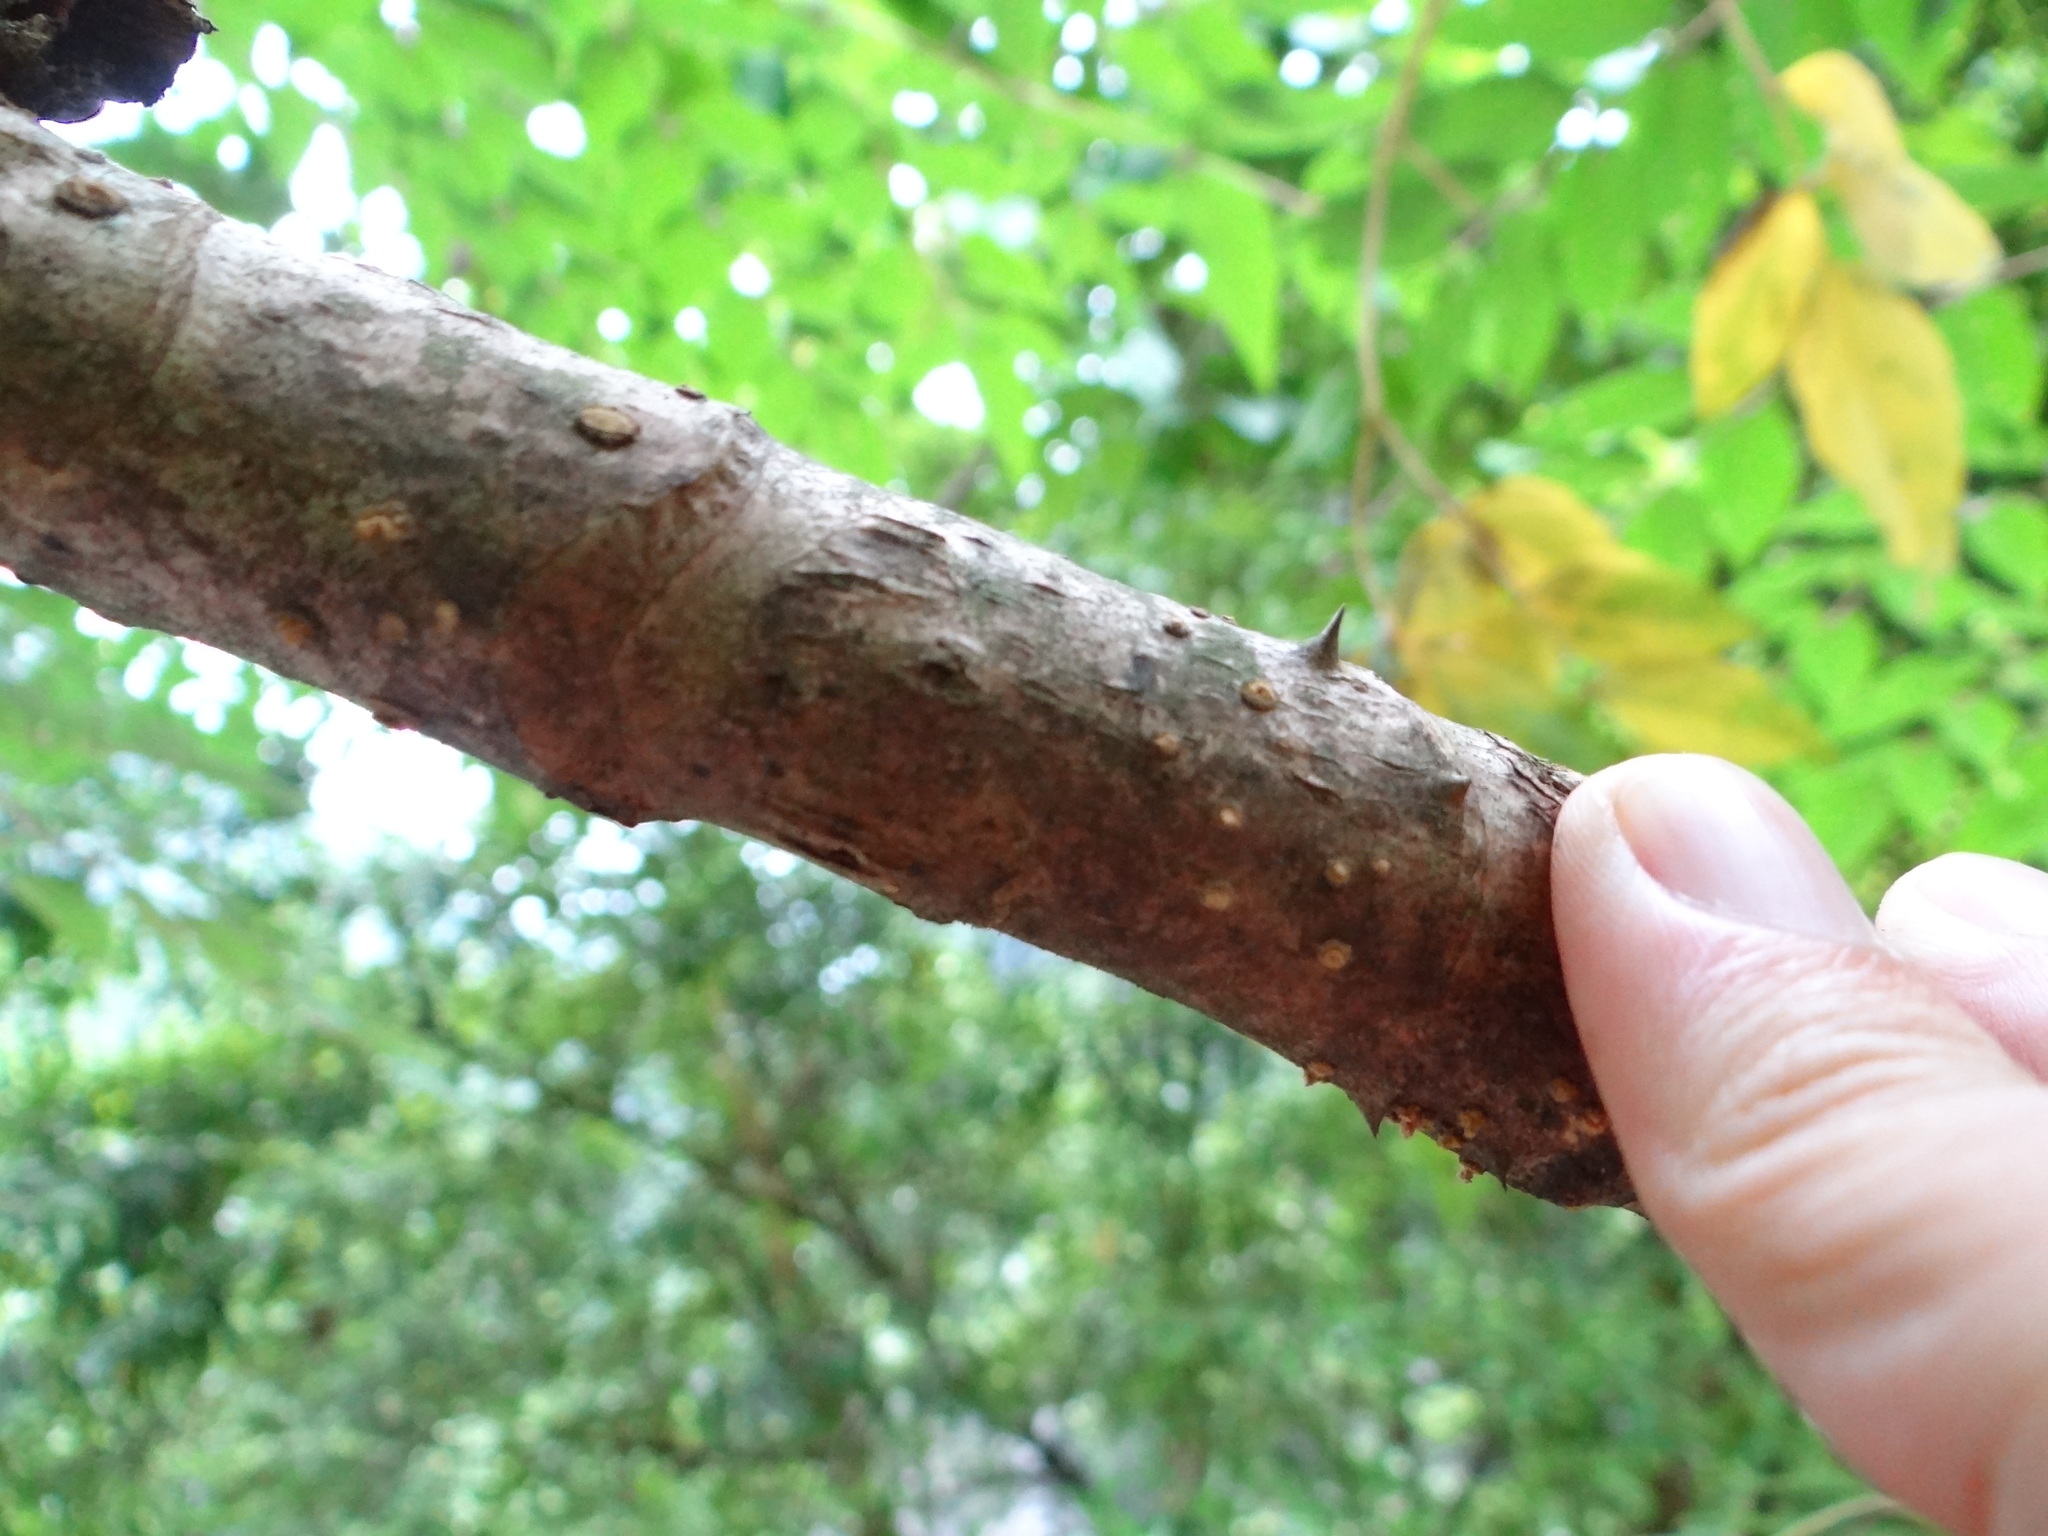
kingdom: Plantae
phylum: Tracheophyta
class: Magnoliopsida
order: Apiales
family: Araliaceae
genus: Aralia
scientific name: Aralia bipinnata
